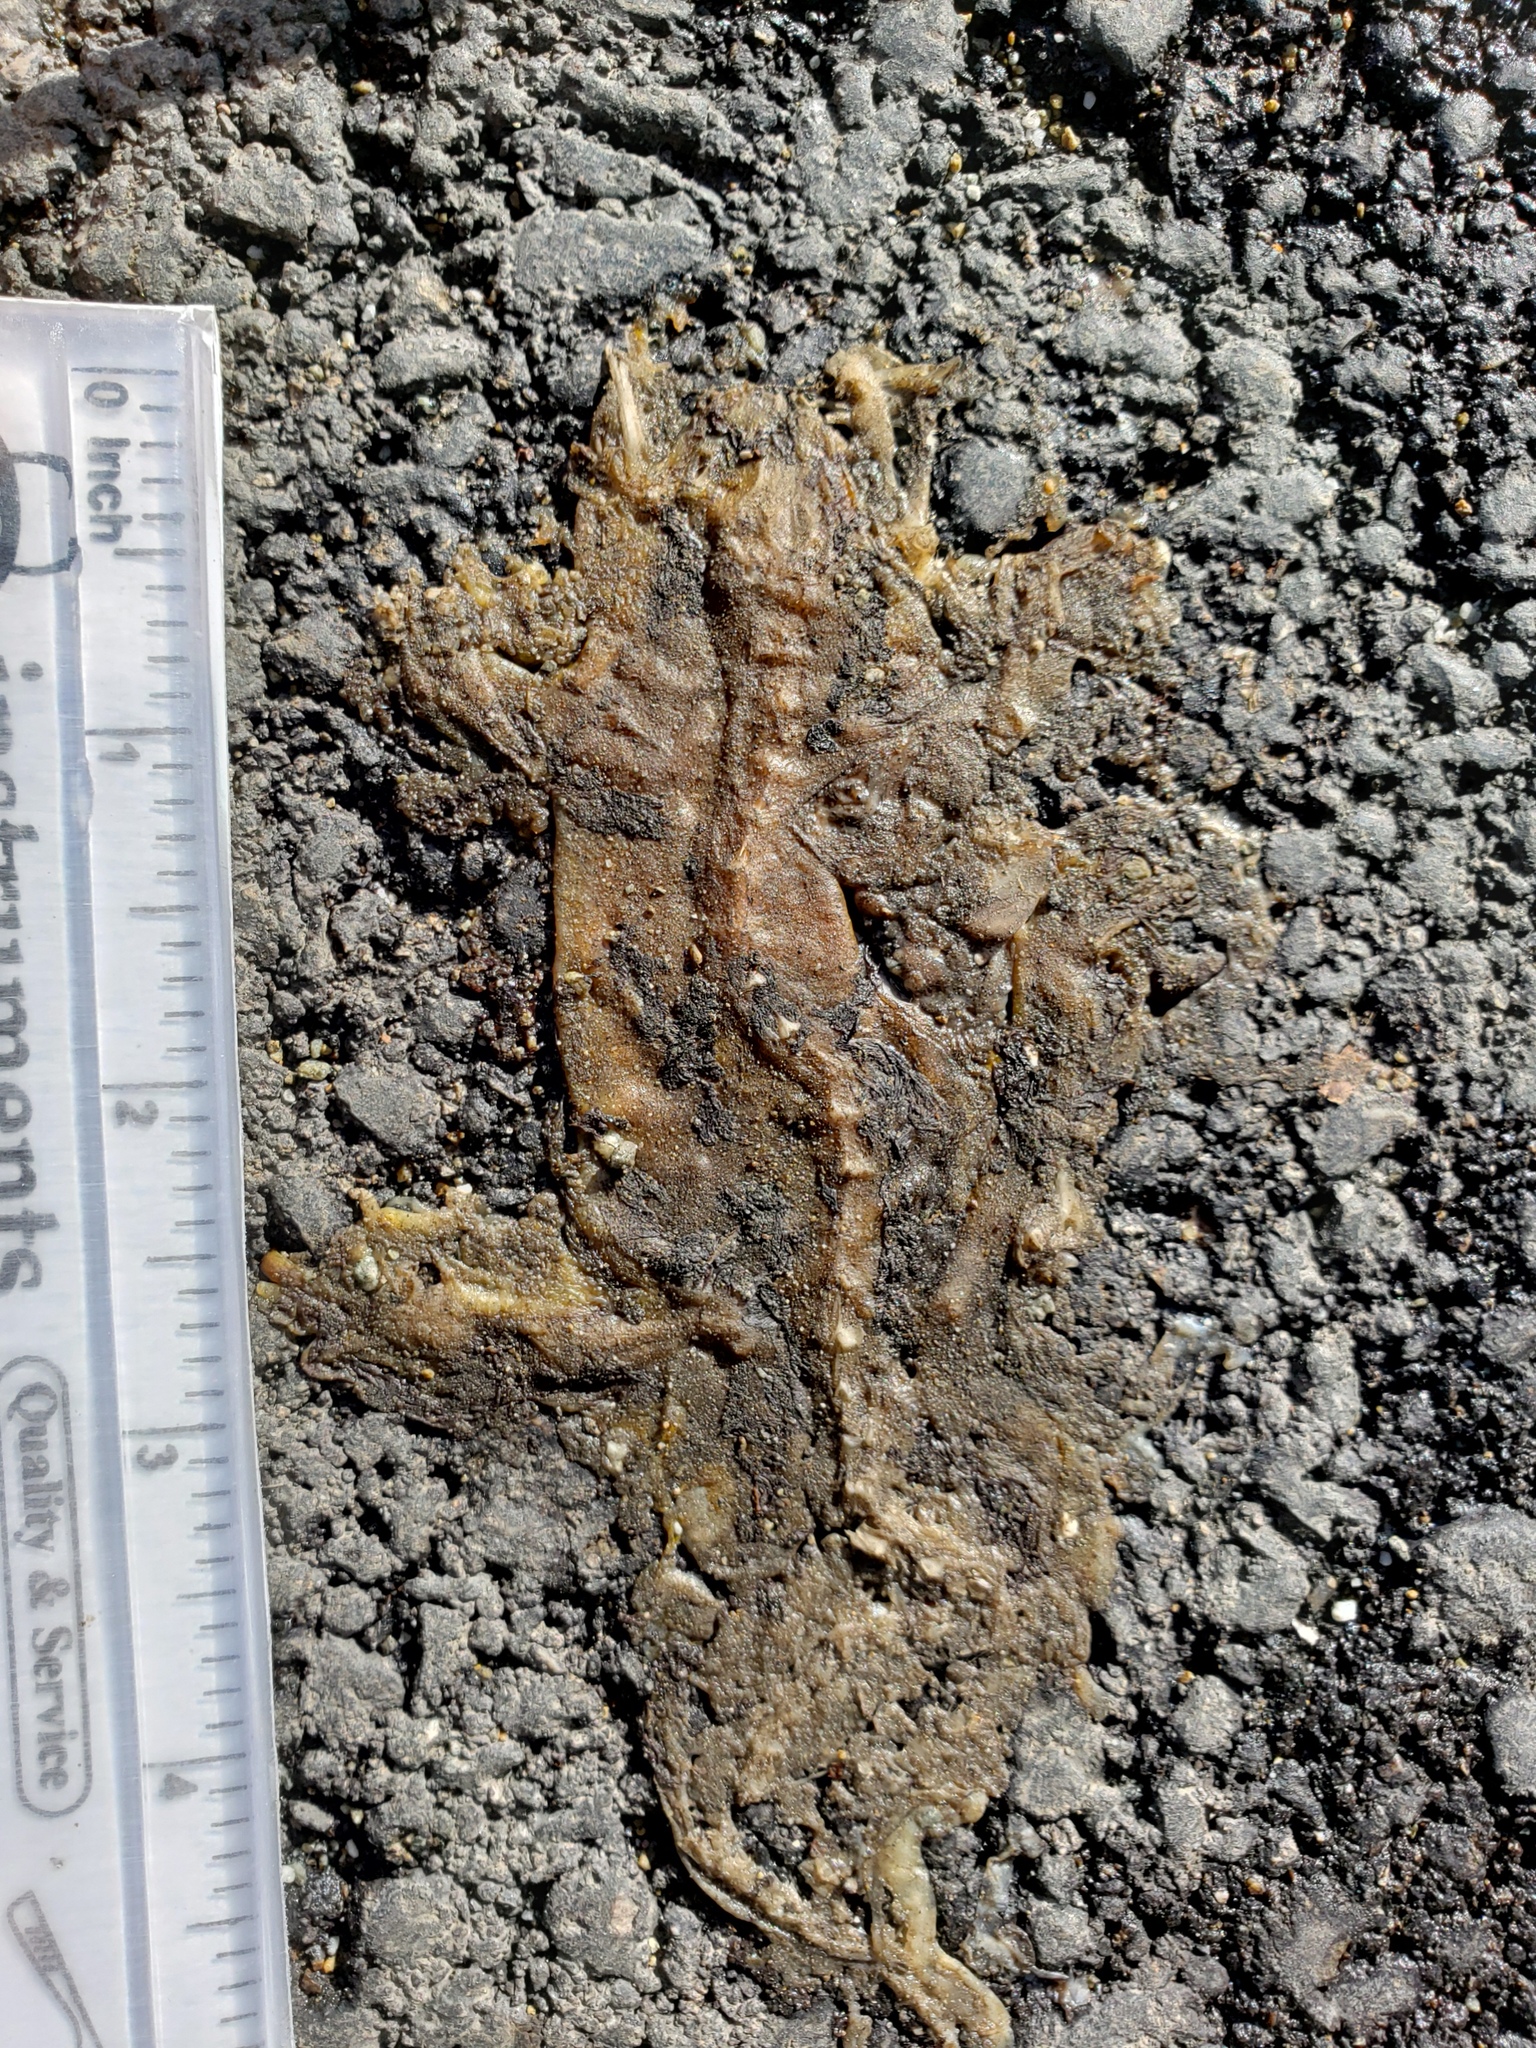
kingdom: Animalia
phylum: Chordata
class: Amphibia
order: Caudata
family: Salamandridae
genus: Taricha
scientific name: Taricha
